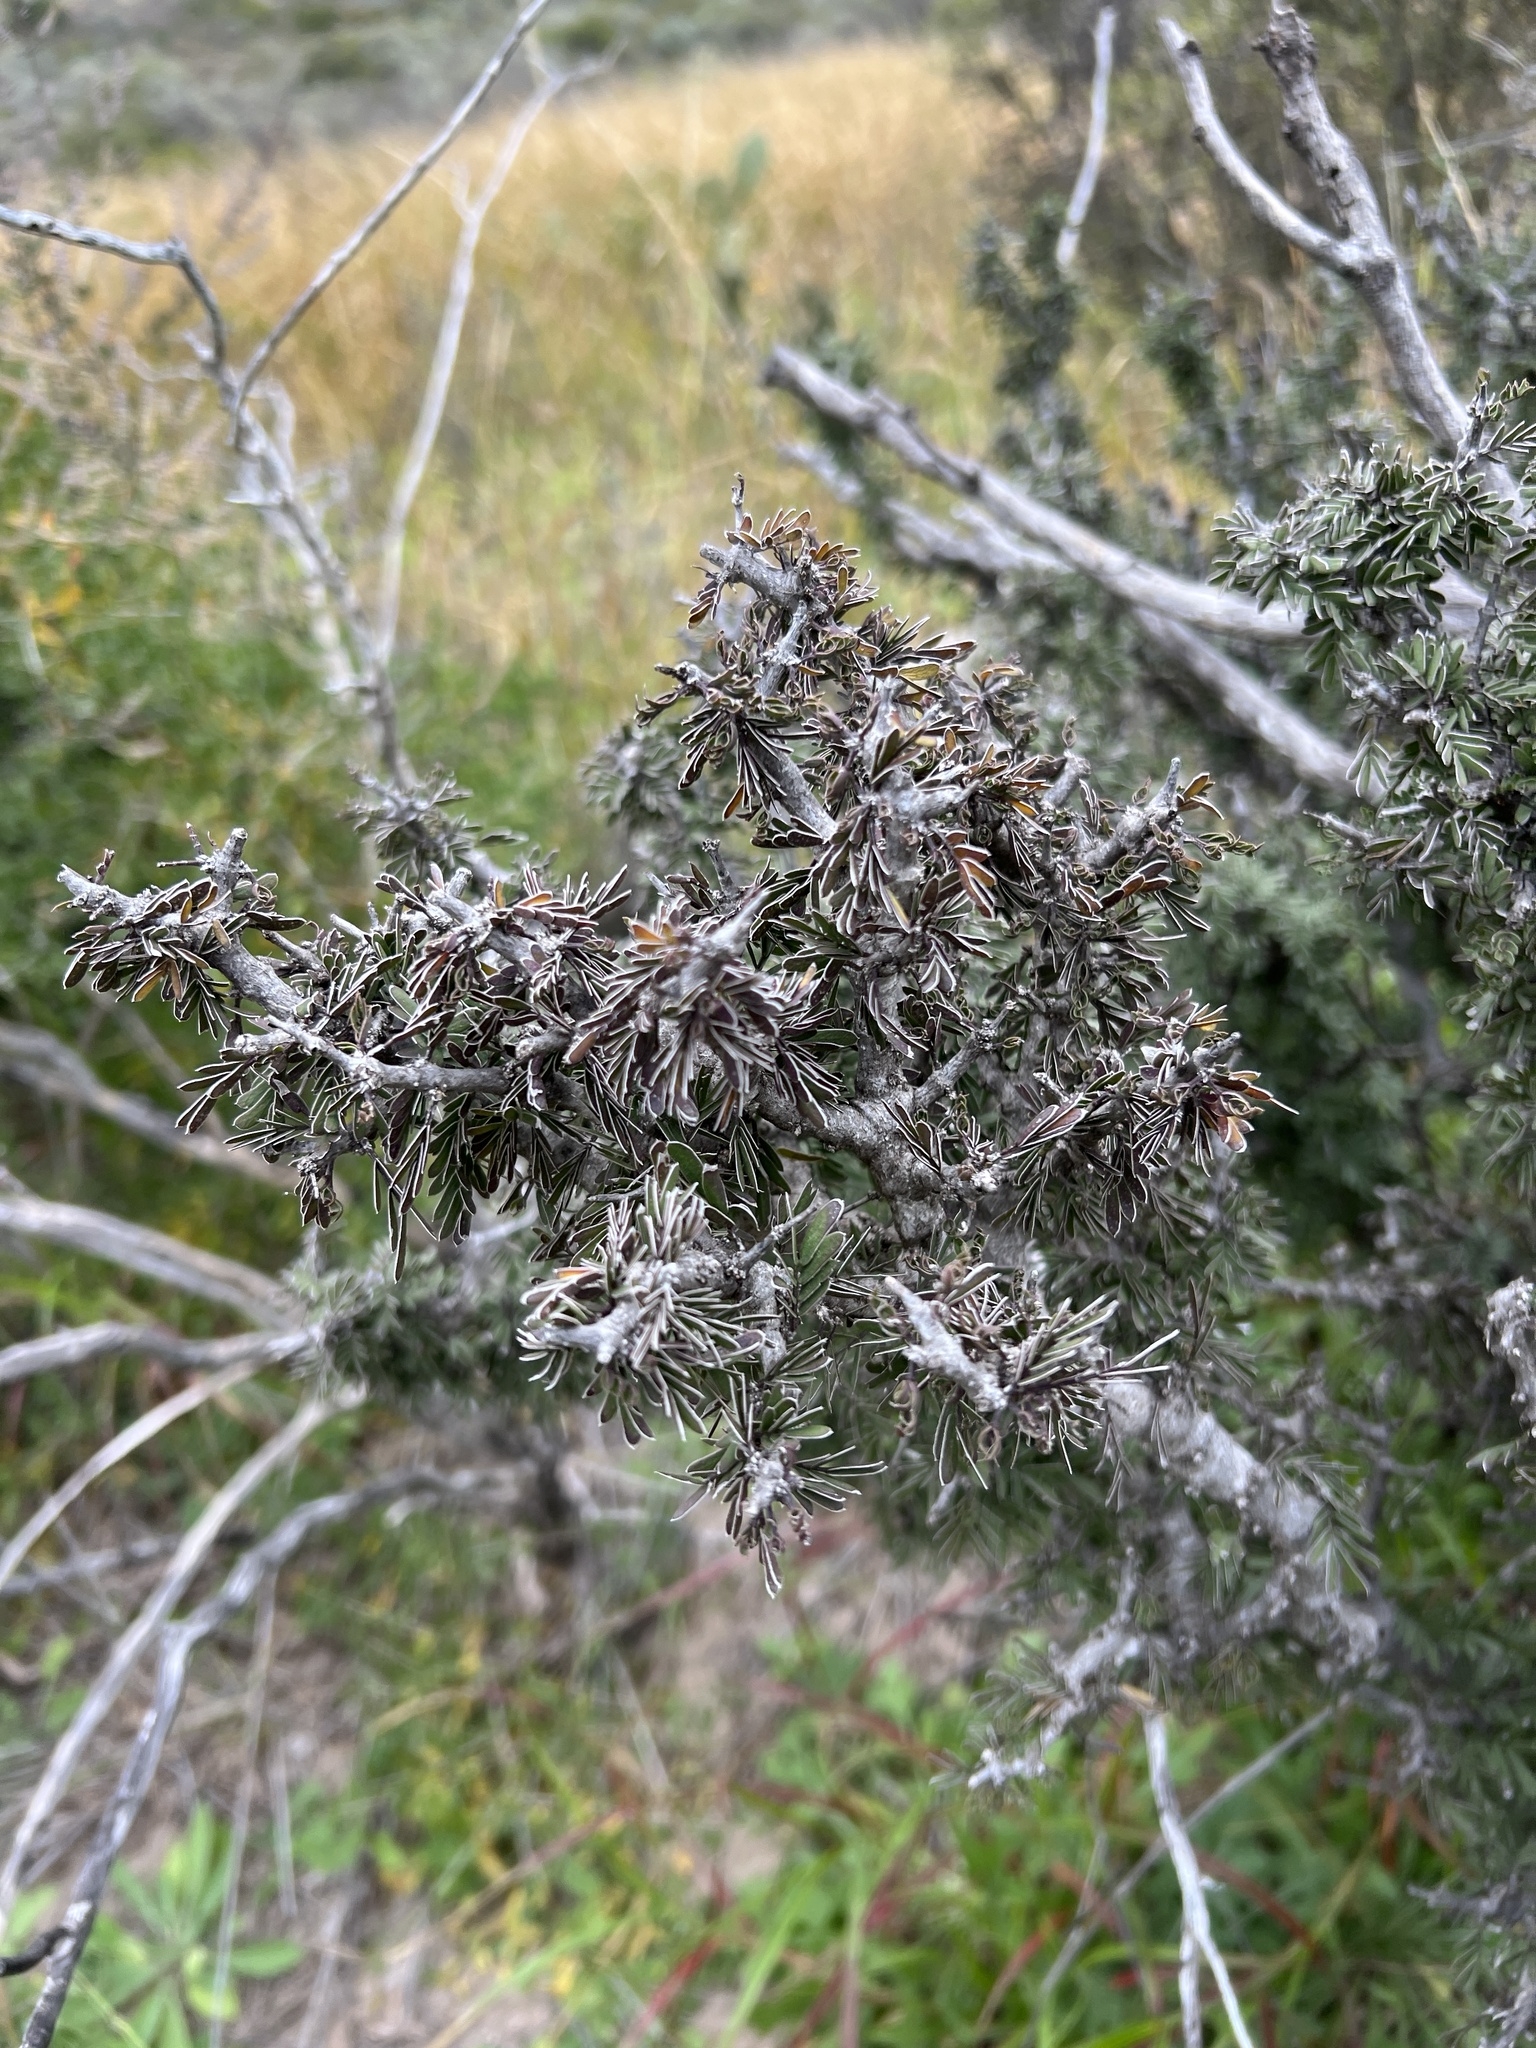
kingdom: Plantae
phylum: Tracheophyta
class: Magnoliopsida
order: Zygophyllales
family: Zygophyllaceae
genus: Porlieria
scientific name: Porlieria angustifolia
